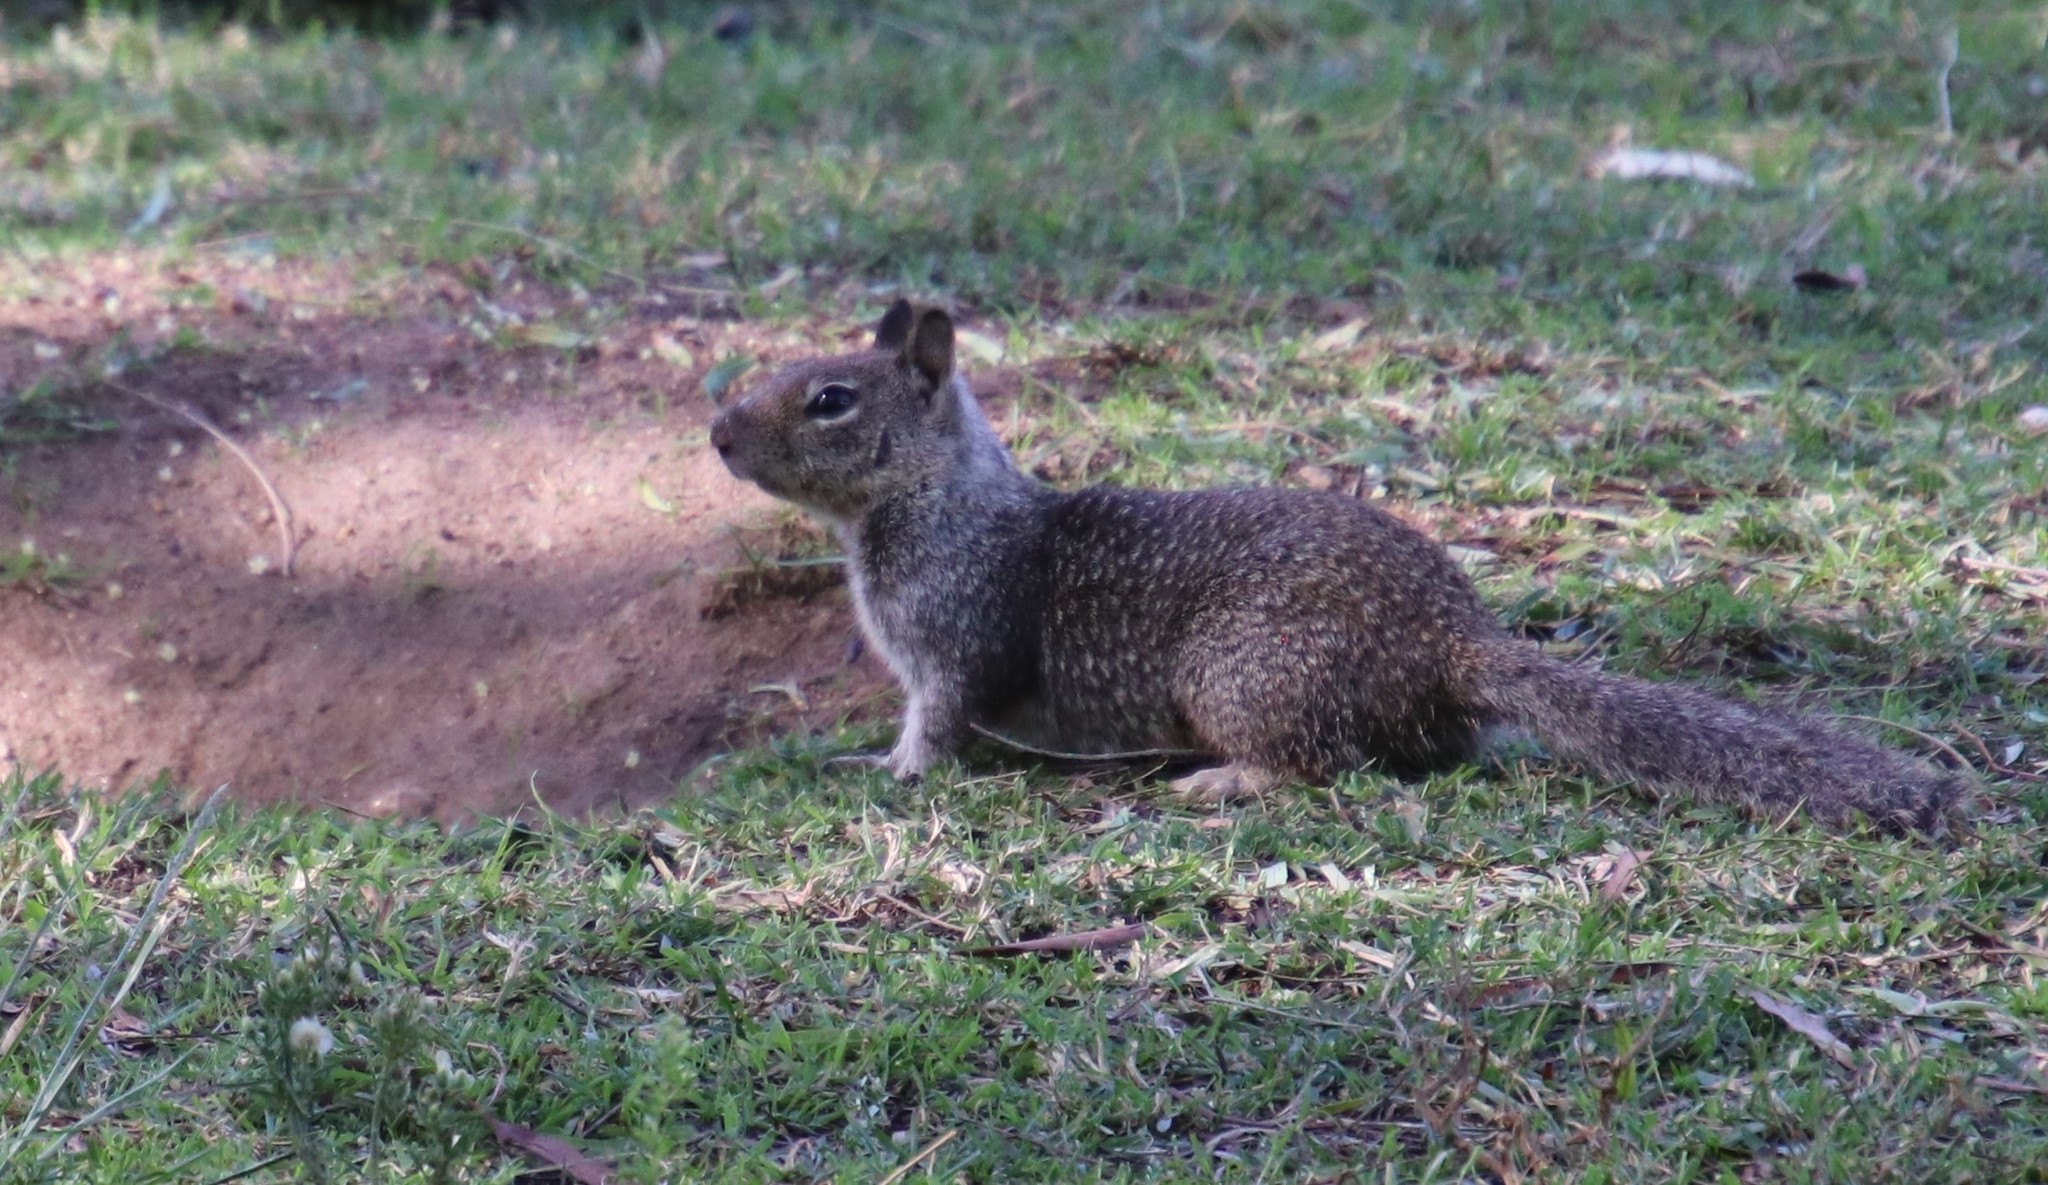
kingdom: Animalia
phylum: Chordata
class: Mammalia
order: Rodentia
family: Sciuridae
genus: Otospermophilus
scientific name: Otospermophilus beecheyi
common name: California ground squirrel
